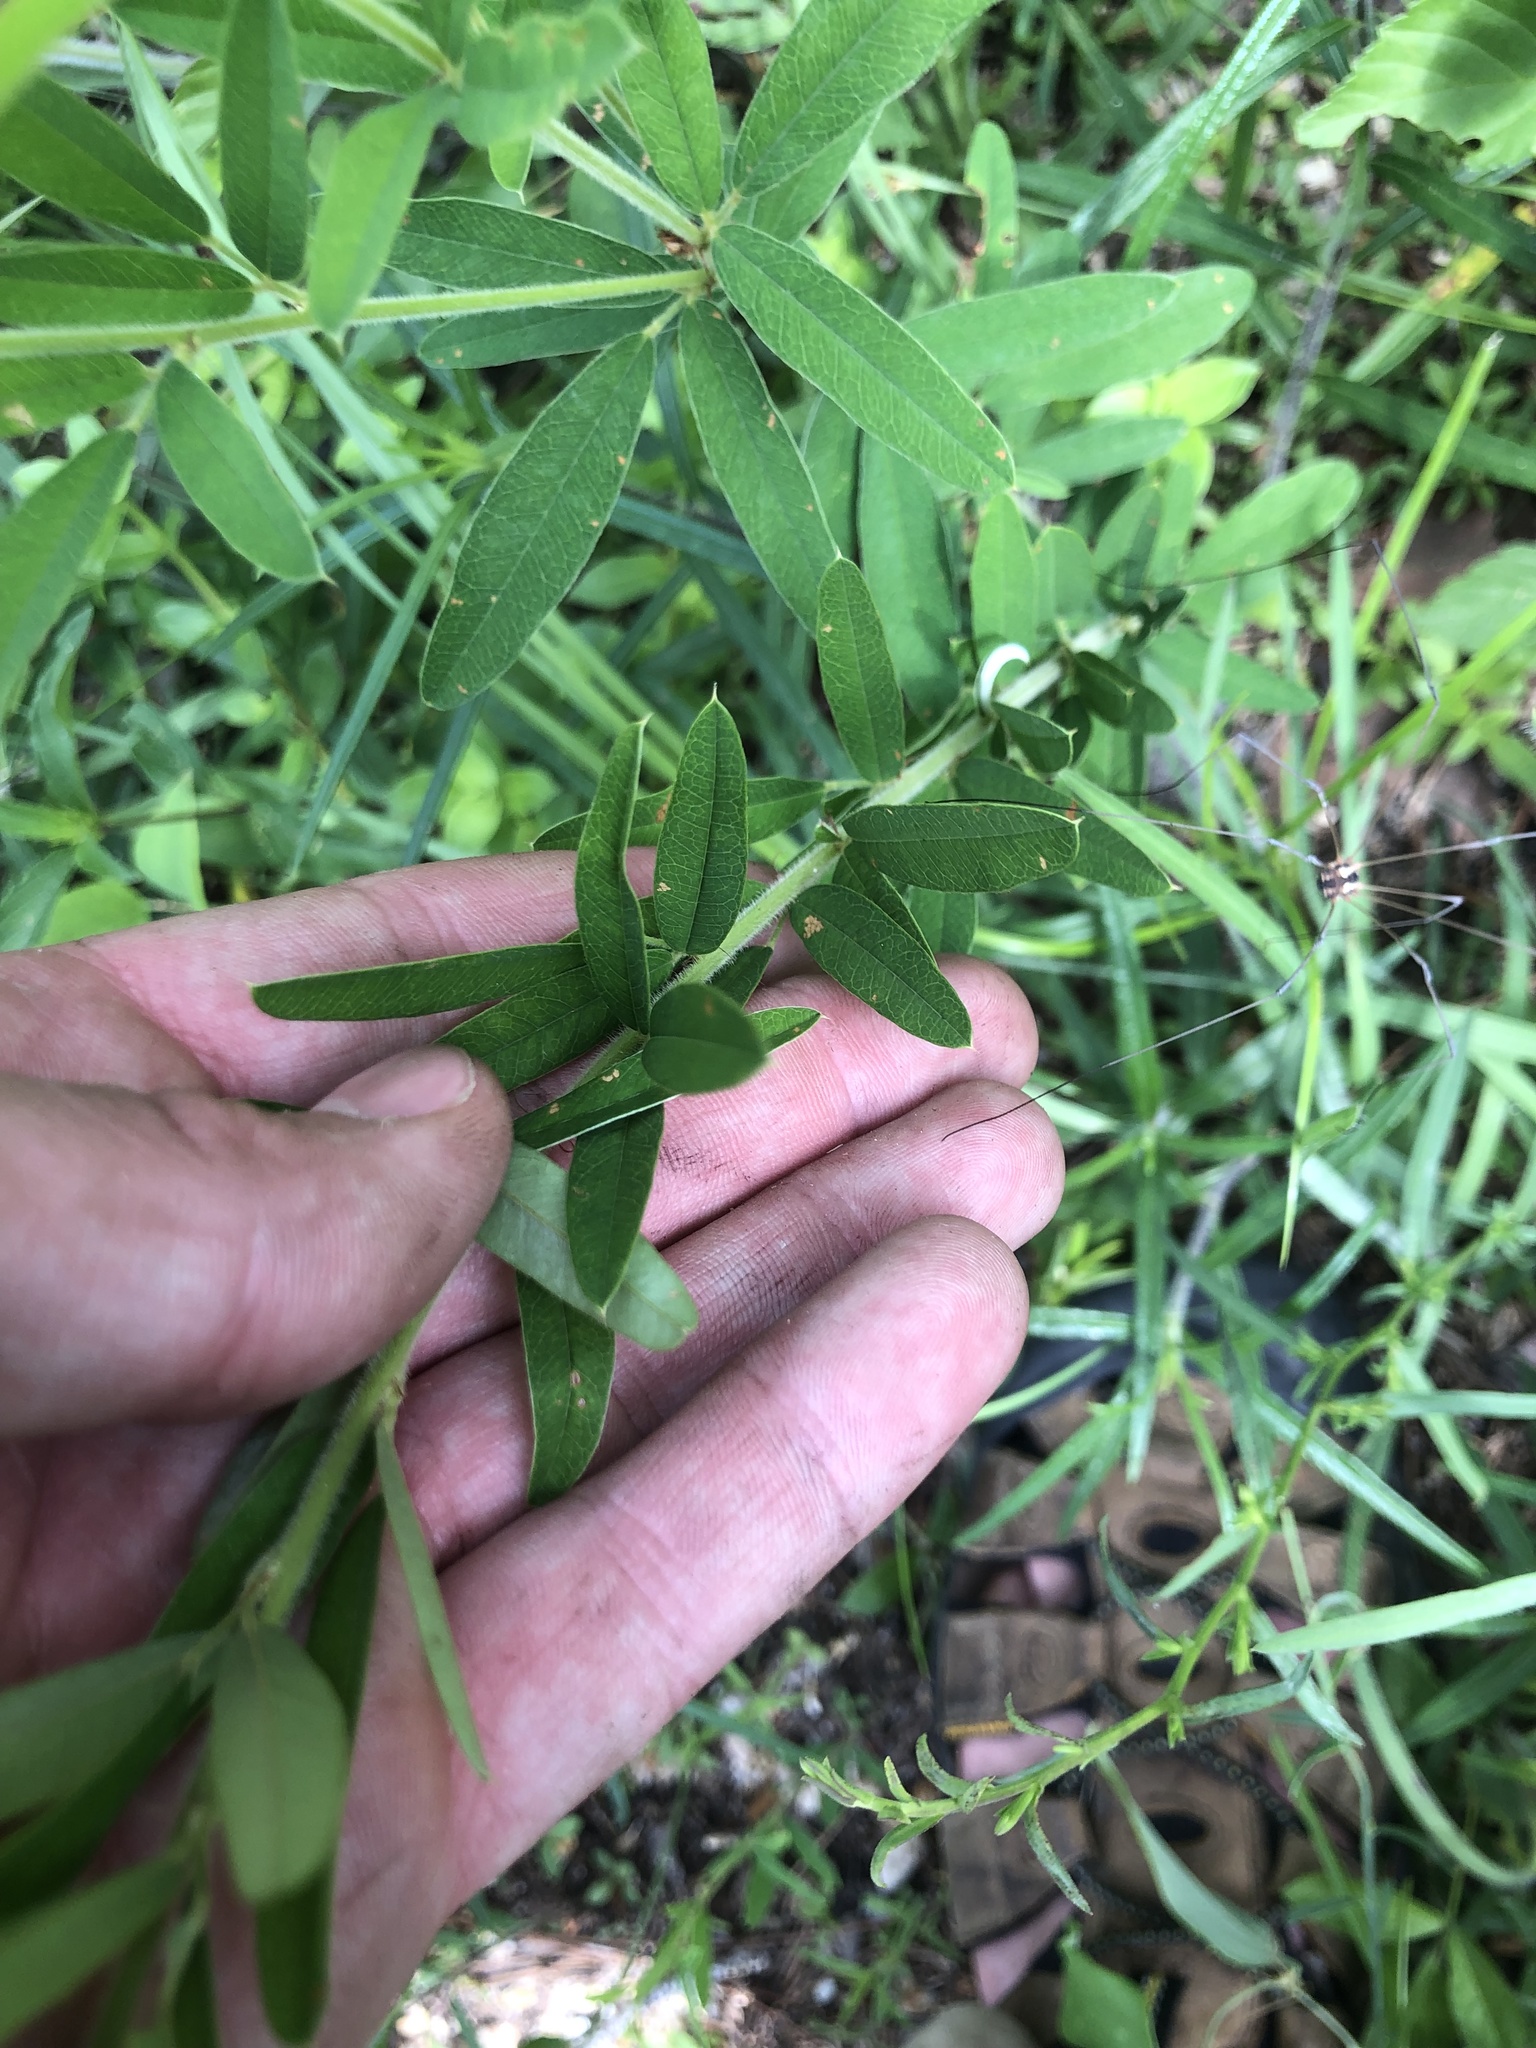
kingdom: Plantae
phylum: Tracheophyta
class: Magnoliopsida
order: Fabales
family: Fabaceae
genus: Lespedeza
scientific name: Lespedeza capitata
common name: Dusty clover
